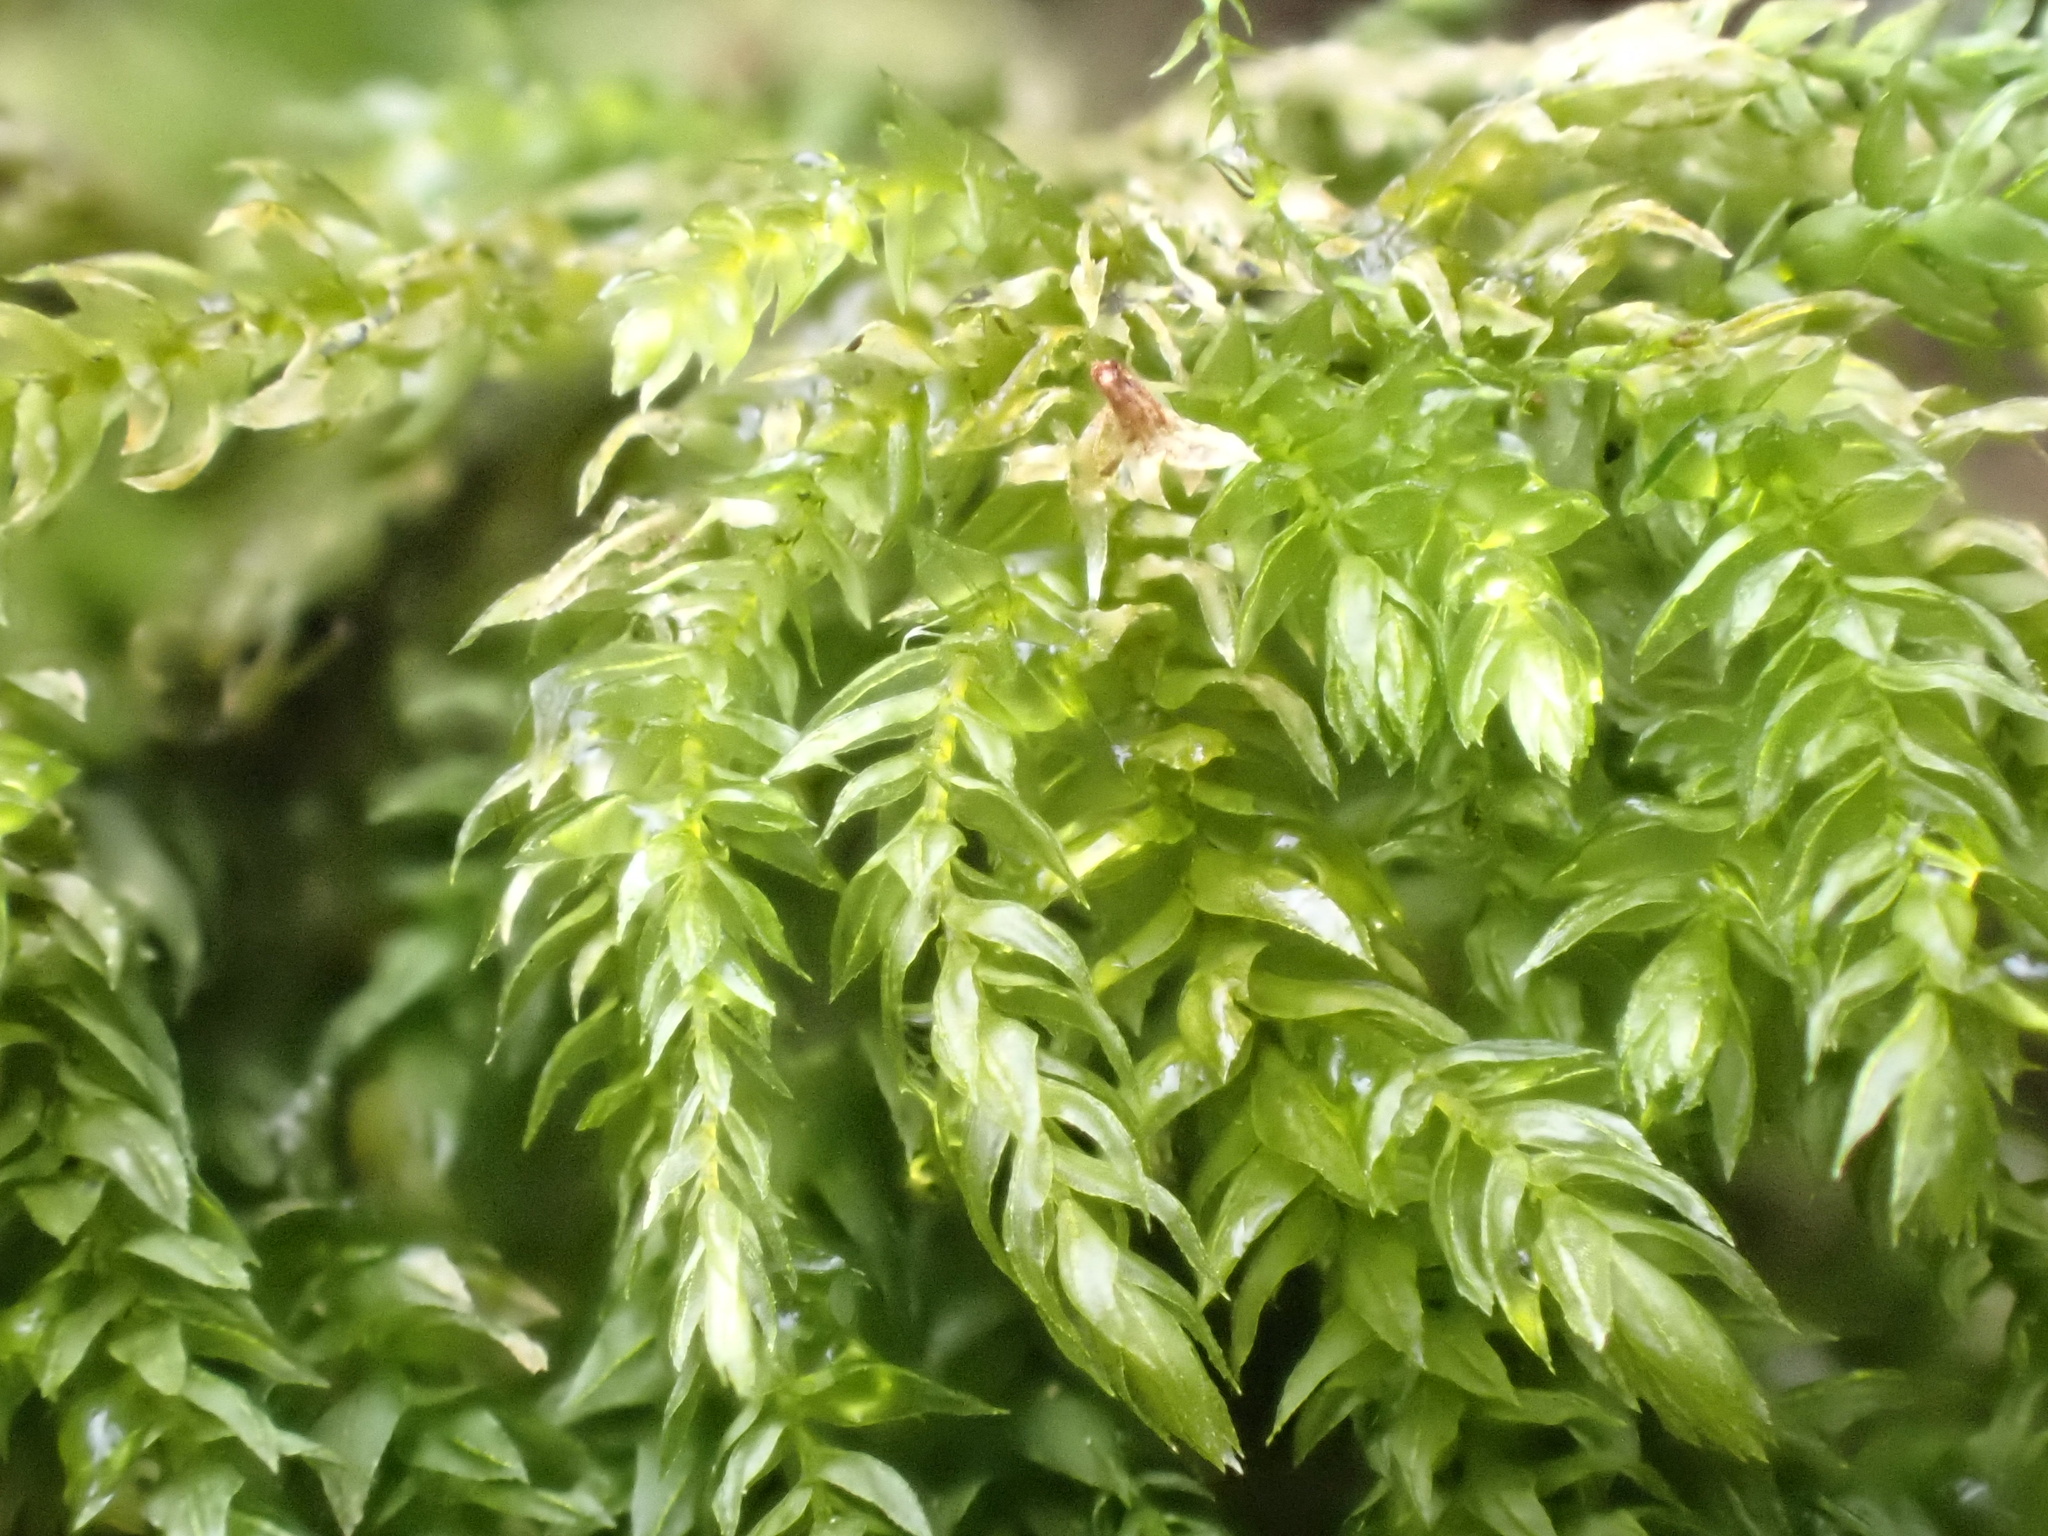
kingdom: Plantae
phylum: Bryophyta
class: Bryopsida
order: Hypnales
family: Neckeraceae
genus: Thamnobryum
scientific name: Thamnobryum alopecurum
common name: Fox-tail feather-moss
